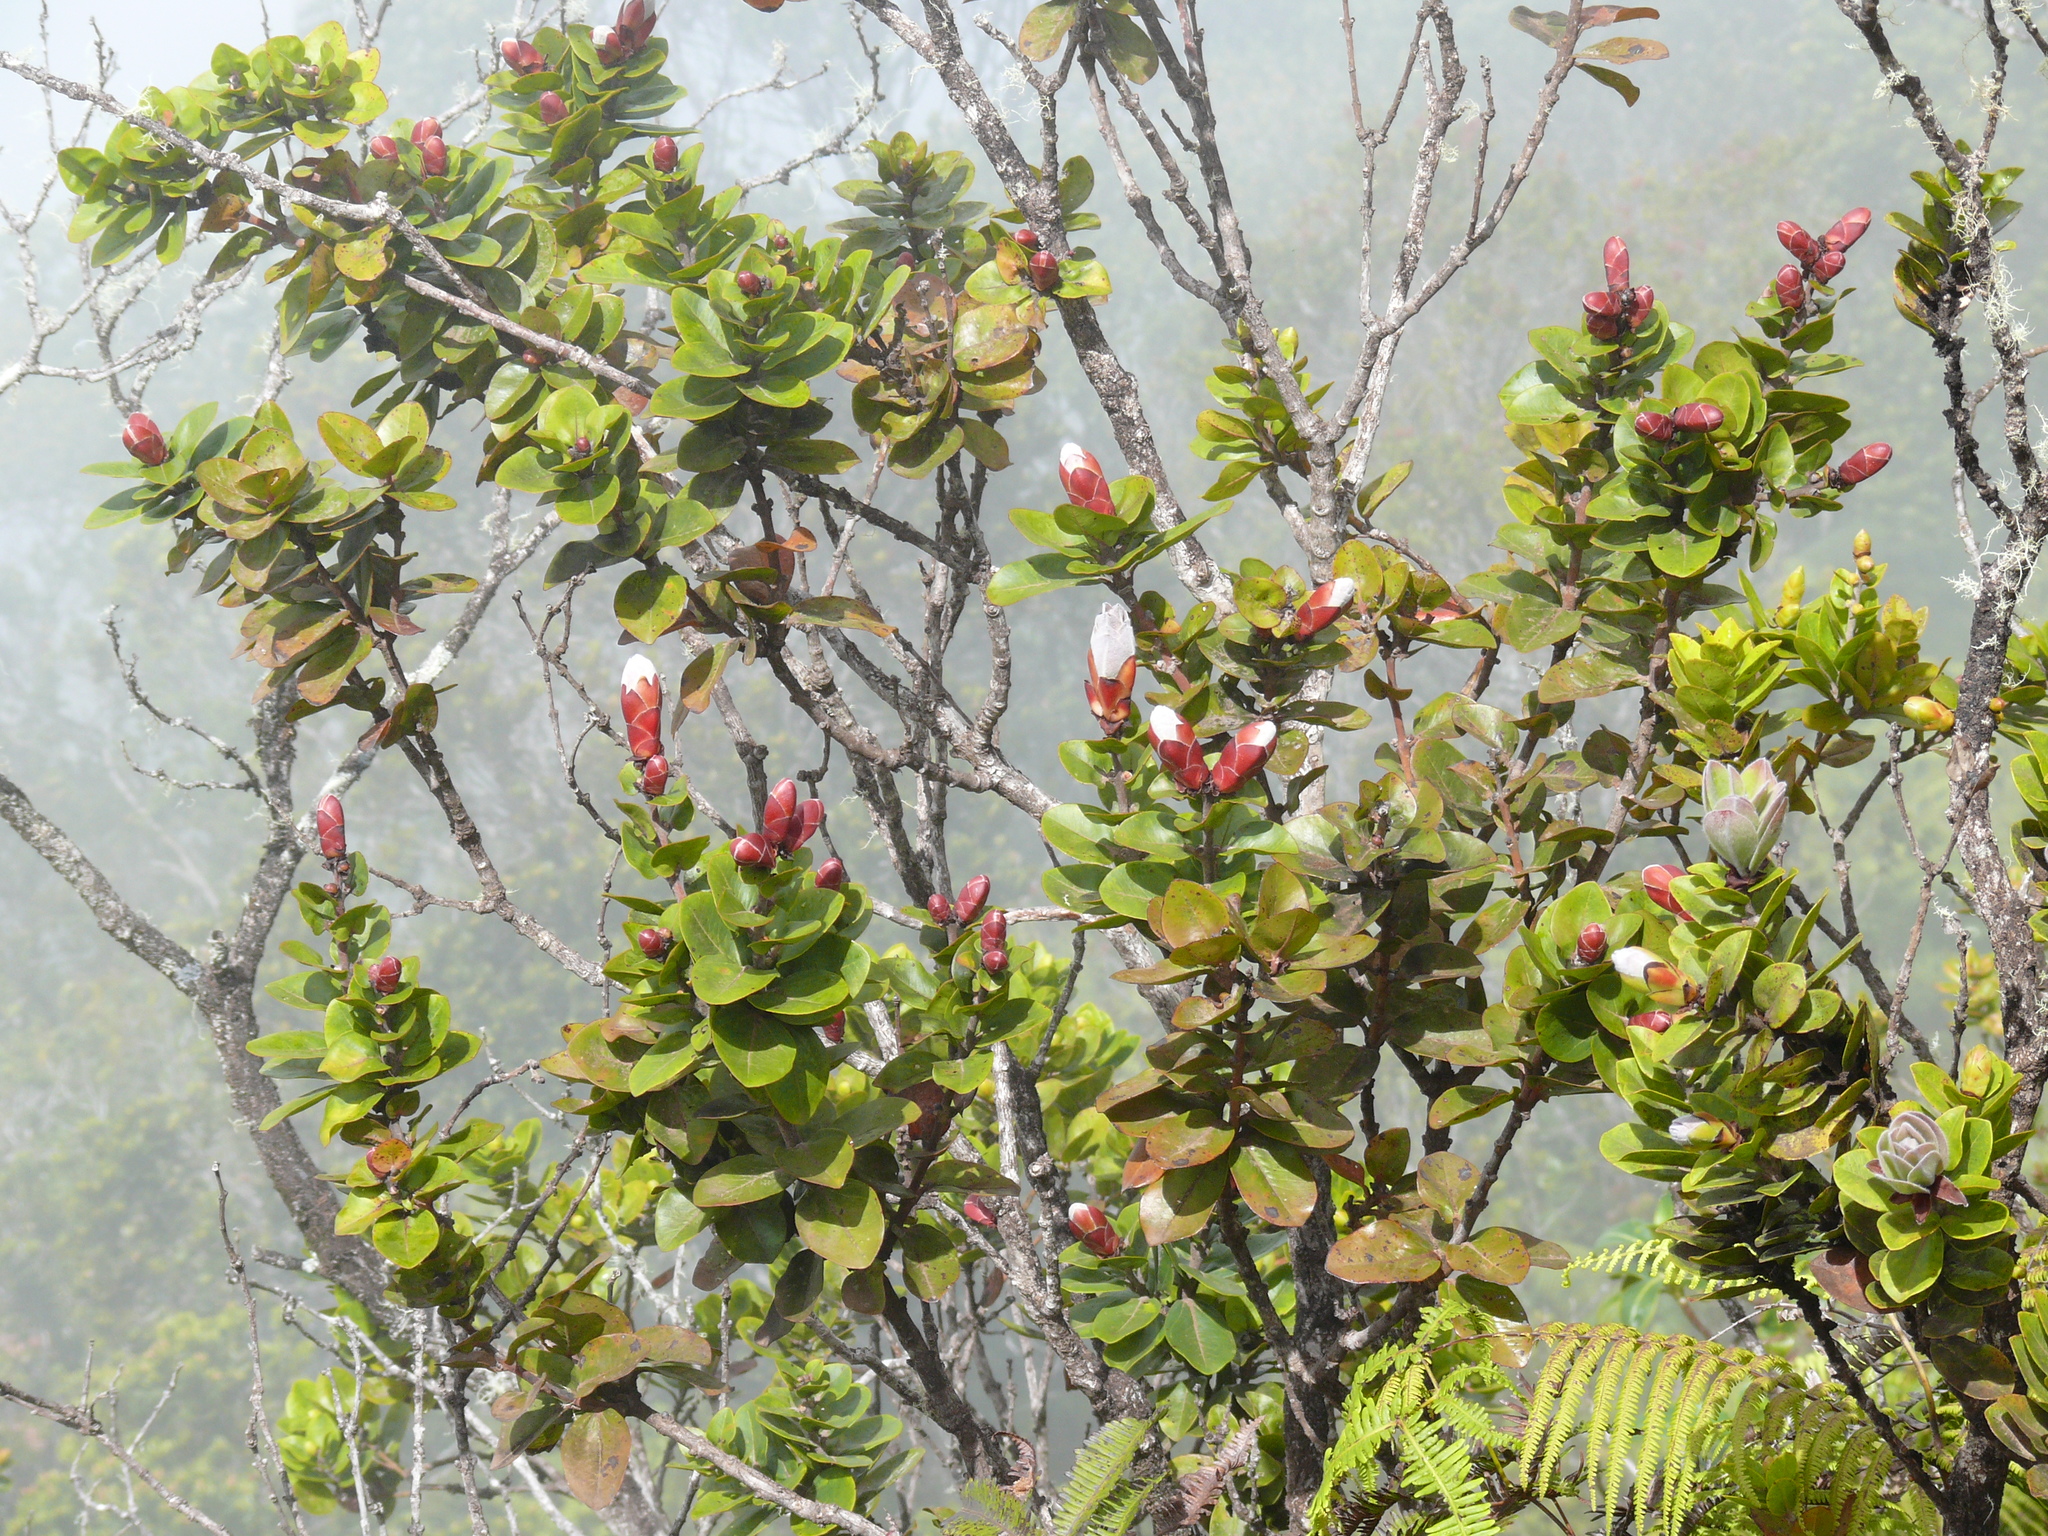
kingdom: Plantae
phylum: Tracheophyta
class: Magnoliopsida
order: Myrtales
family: Myrtaceae
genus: Metrosideros
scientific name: Metrosideros polymorpha
